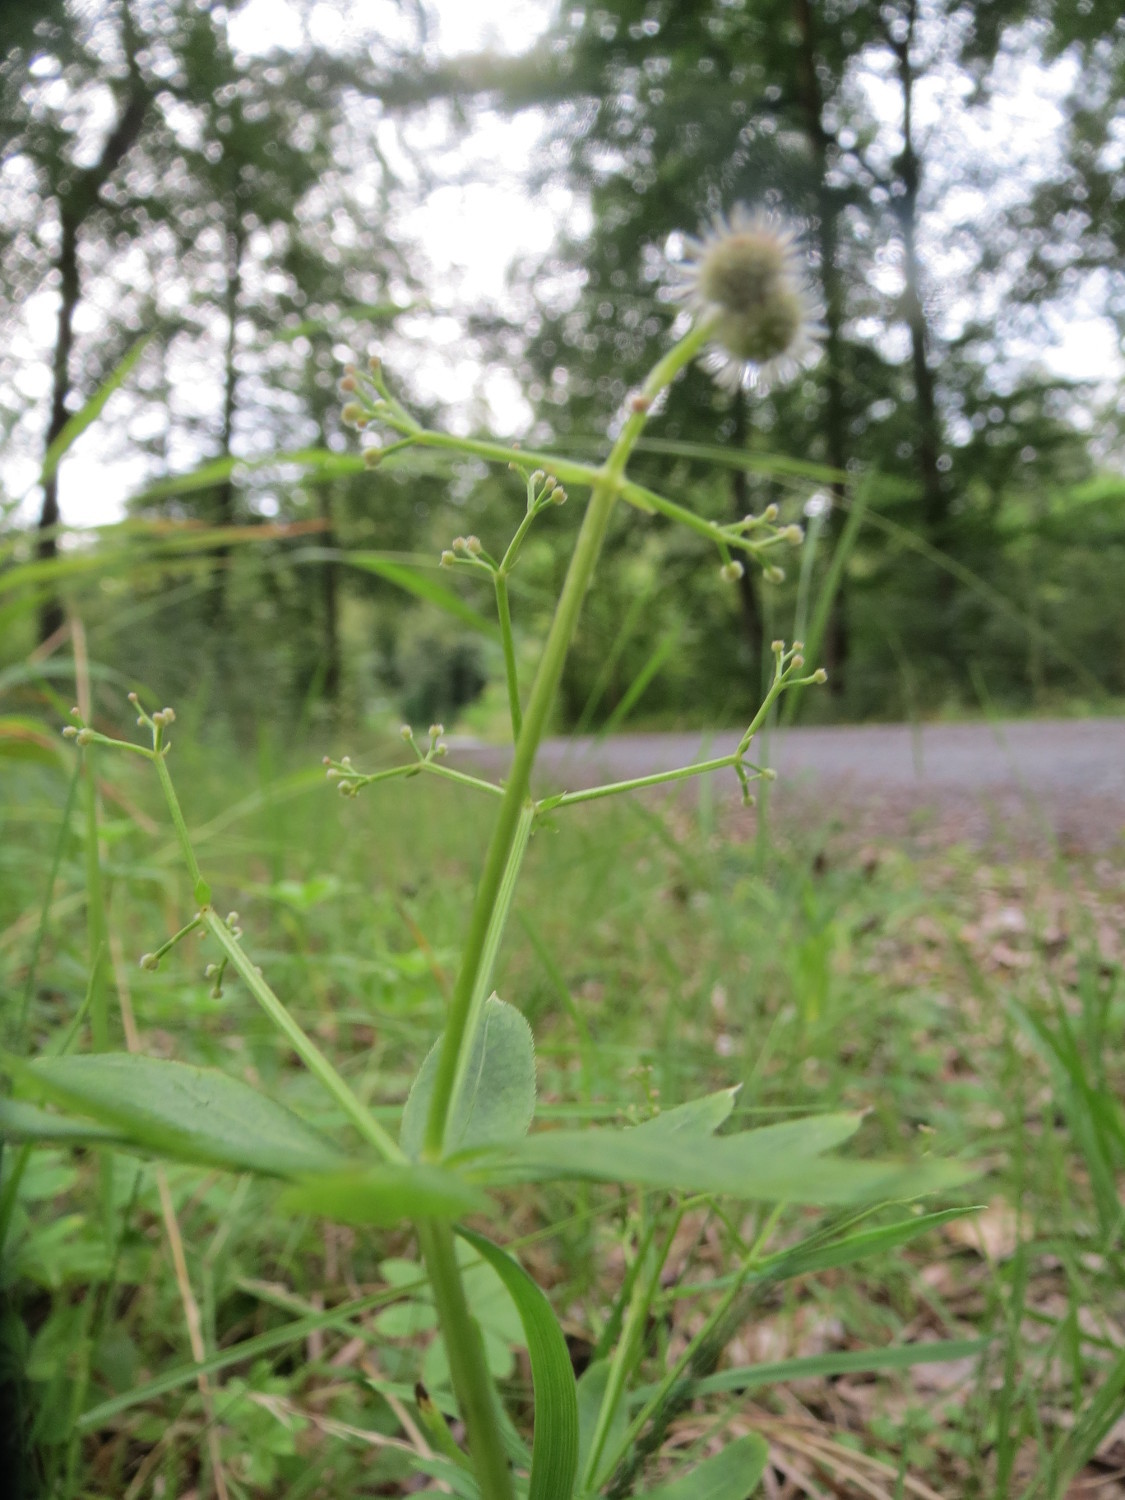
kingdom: Plantae
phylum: Tracheophyta
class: Magnoliopsida
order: Gentianales
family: Rubiaceae
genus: Galium
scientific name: Galium odoratum
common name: Sweet woodruff
